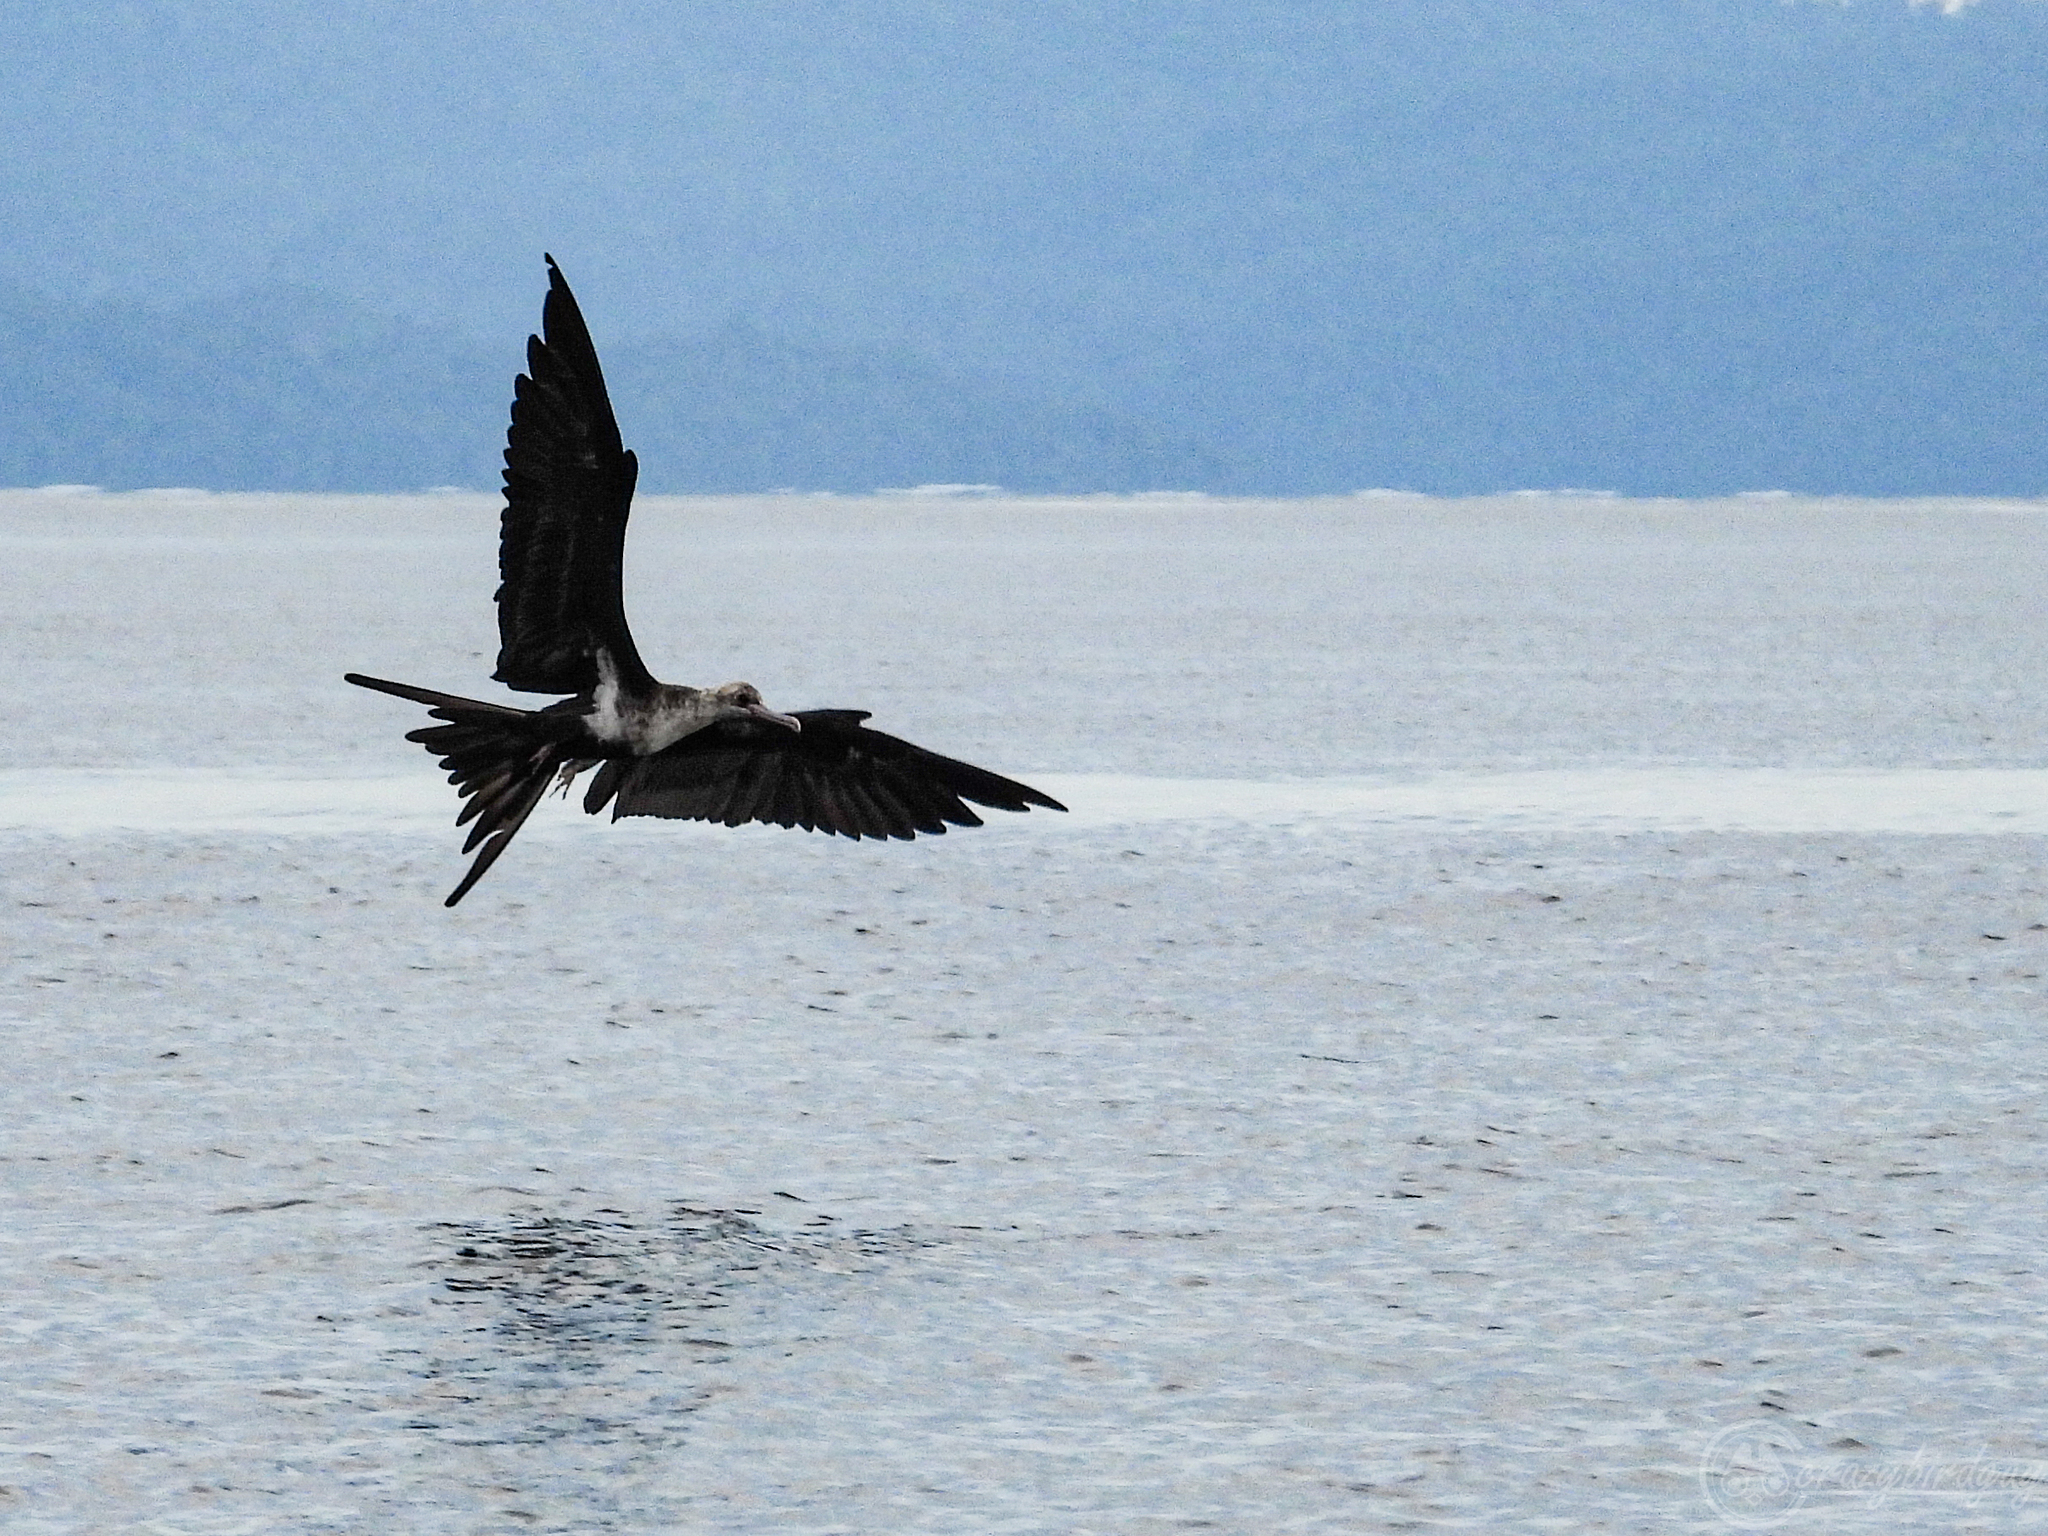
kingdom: Animalia
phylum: Chordata
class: Aves
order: Suliformes
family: Fregatidae
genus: Fregata
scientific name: Fregata ariel
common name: Lesser frigatebird
